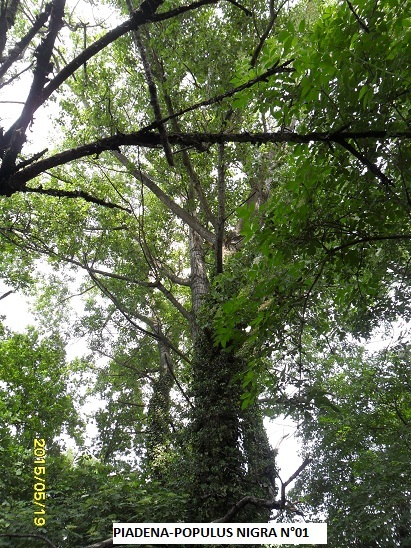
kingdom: Plantae
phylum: Tracheophyta
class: Magnoliopsida
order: Malpighiales
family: Salicaceae
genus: Populus
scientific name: Populus nigra
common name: Black poplar
